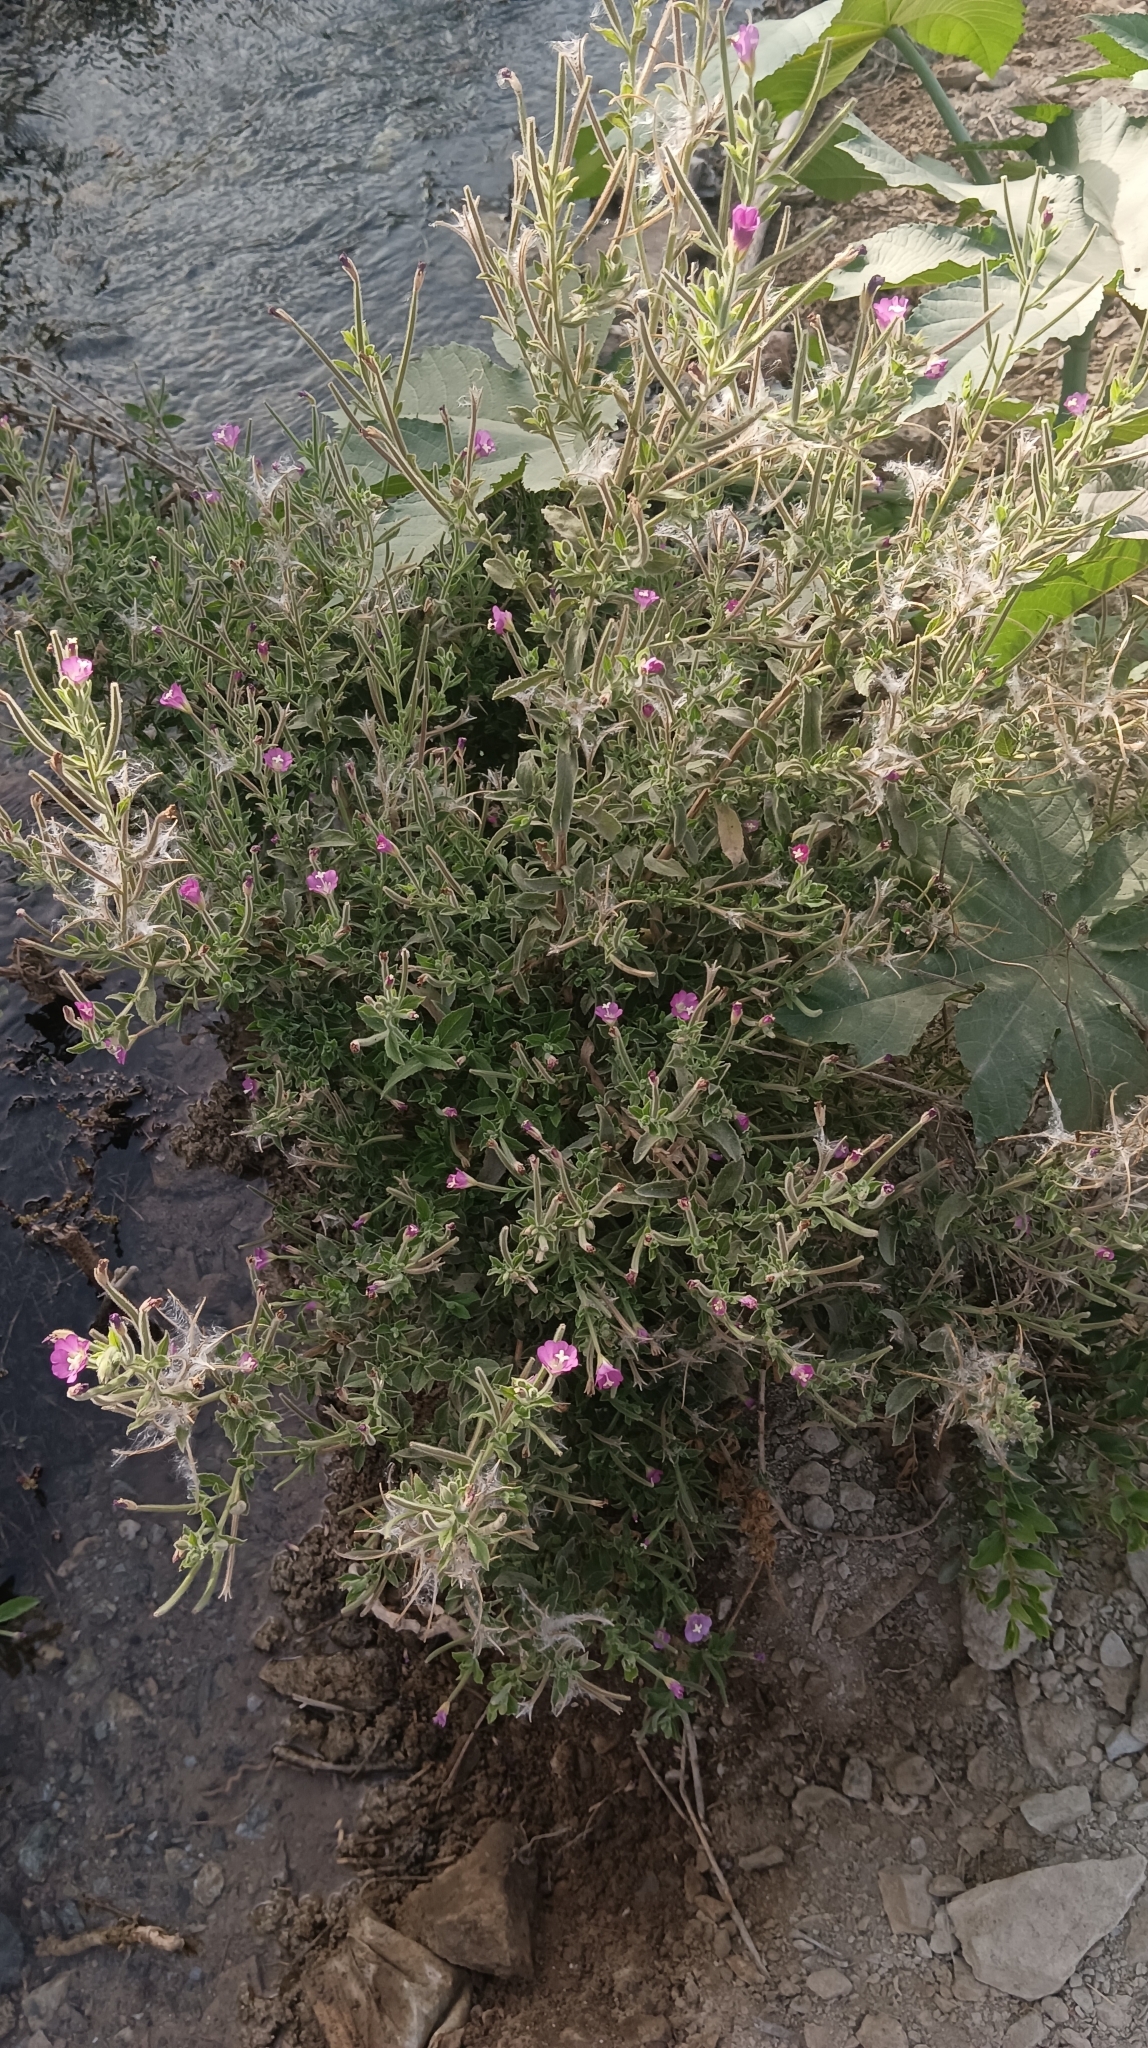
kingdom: Plantae
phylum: Tracheophyta
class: Magnoliopsida
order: Myrtales
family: Onagraceae
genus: Epilobium
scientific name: Epilobium hirsutum
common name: Great willowherb
